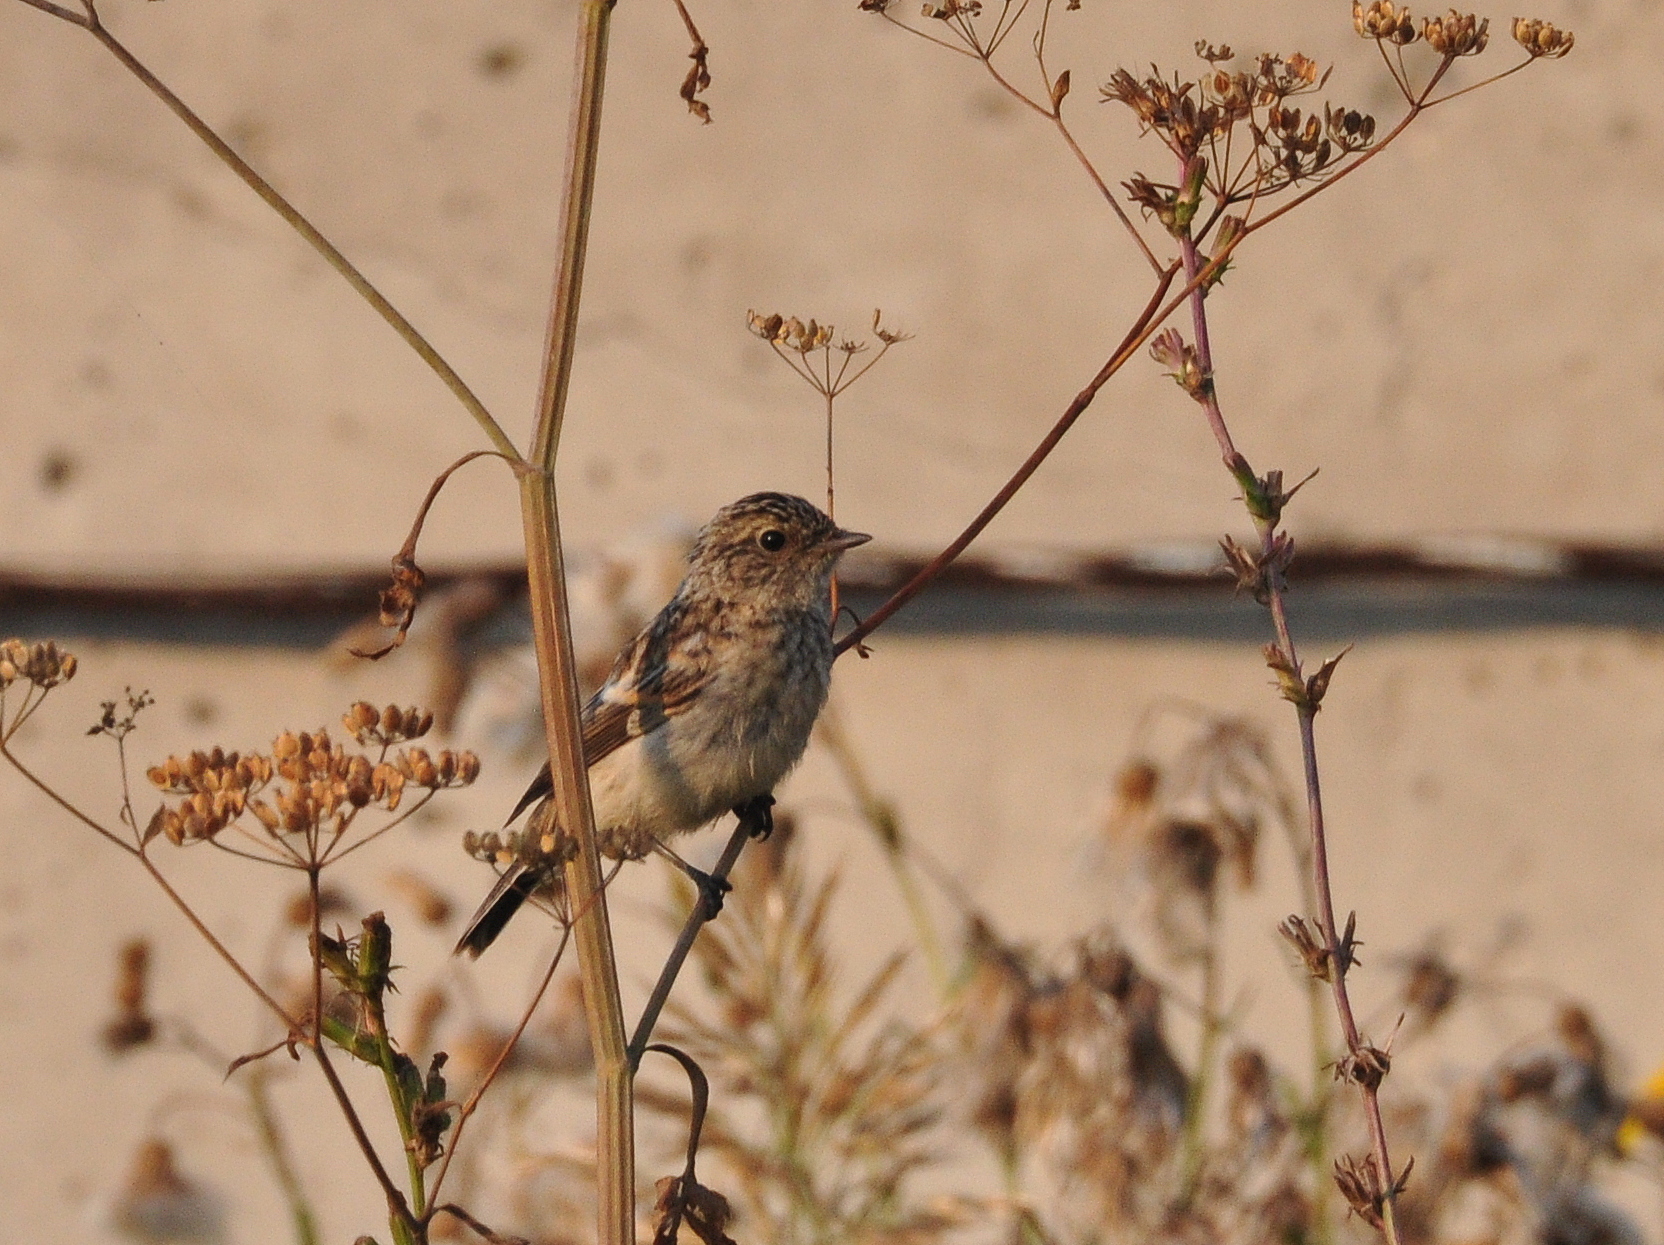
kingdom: Animalia
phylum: Chordata
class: Aves
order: Passeriformes
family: Muscicapidae
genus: Saxicola
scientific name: Saxicola maurus
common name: Siberian stonechat
